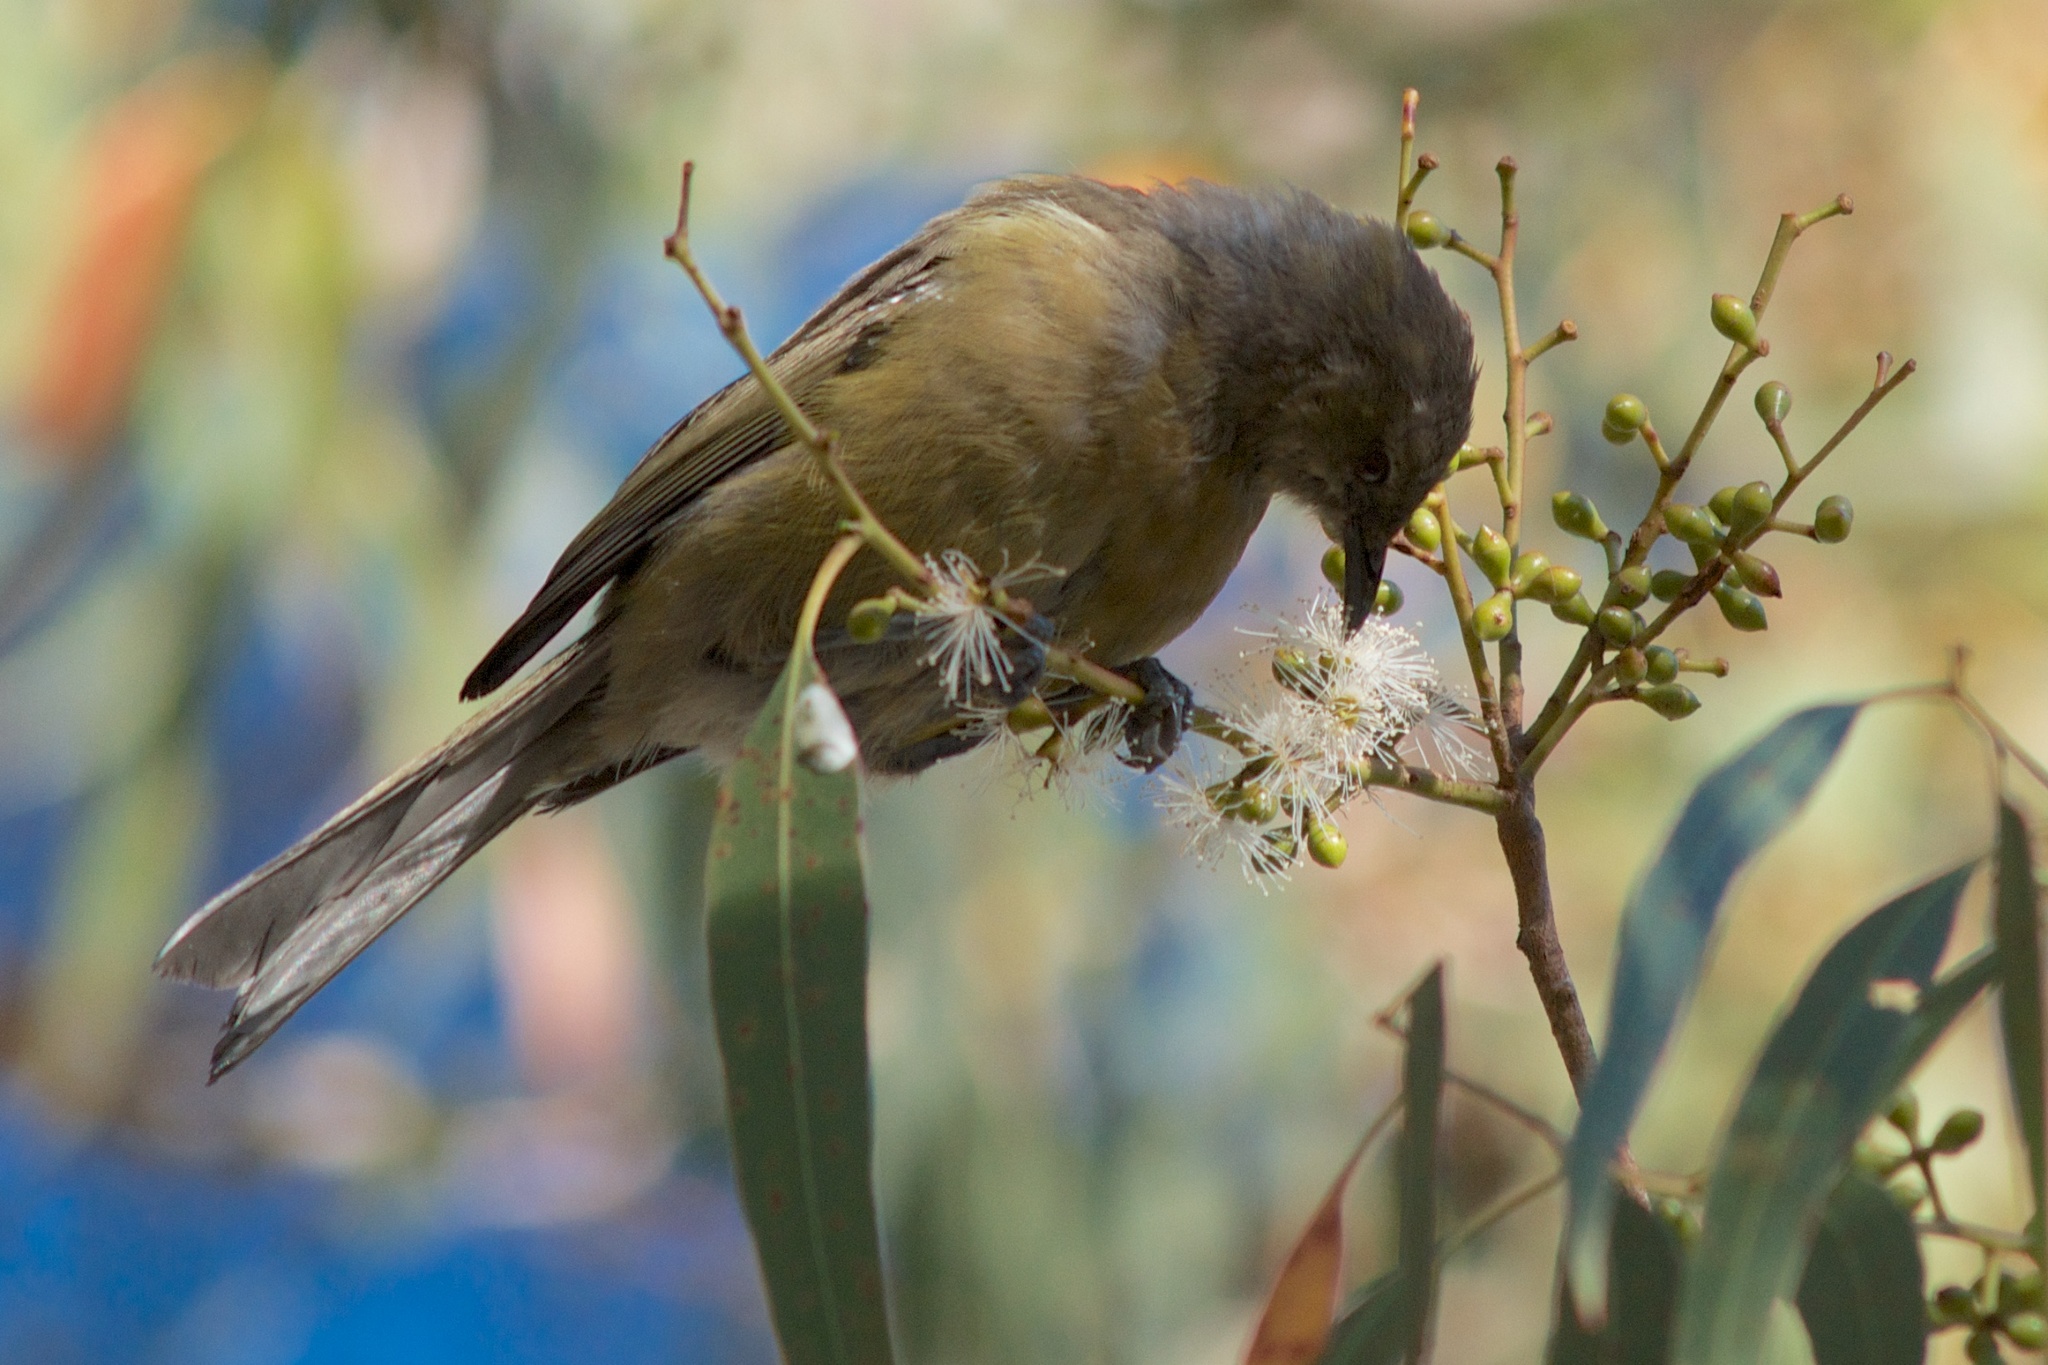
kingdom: Animalia
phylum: Chordata
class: Aves
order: Passeriformes
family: Meliphagidae
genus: Anthornis
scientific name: Anthornis melanura
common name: New zealand bellbird
